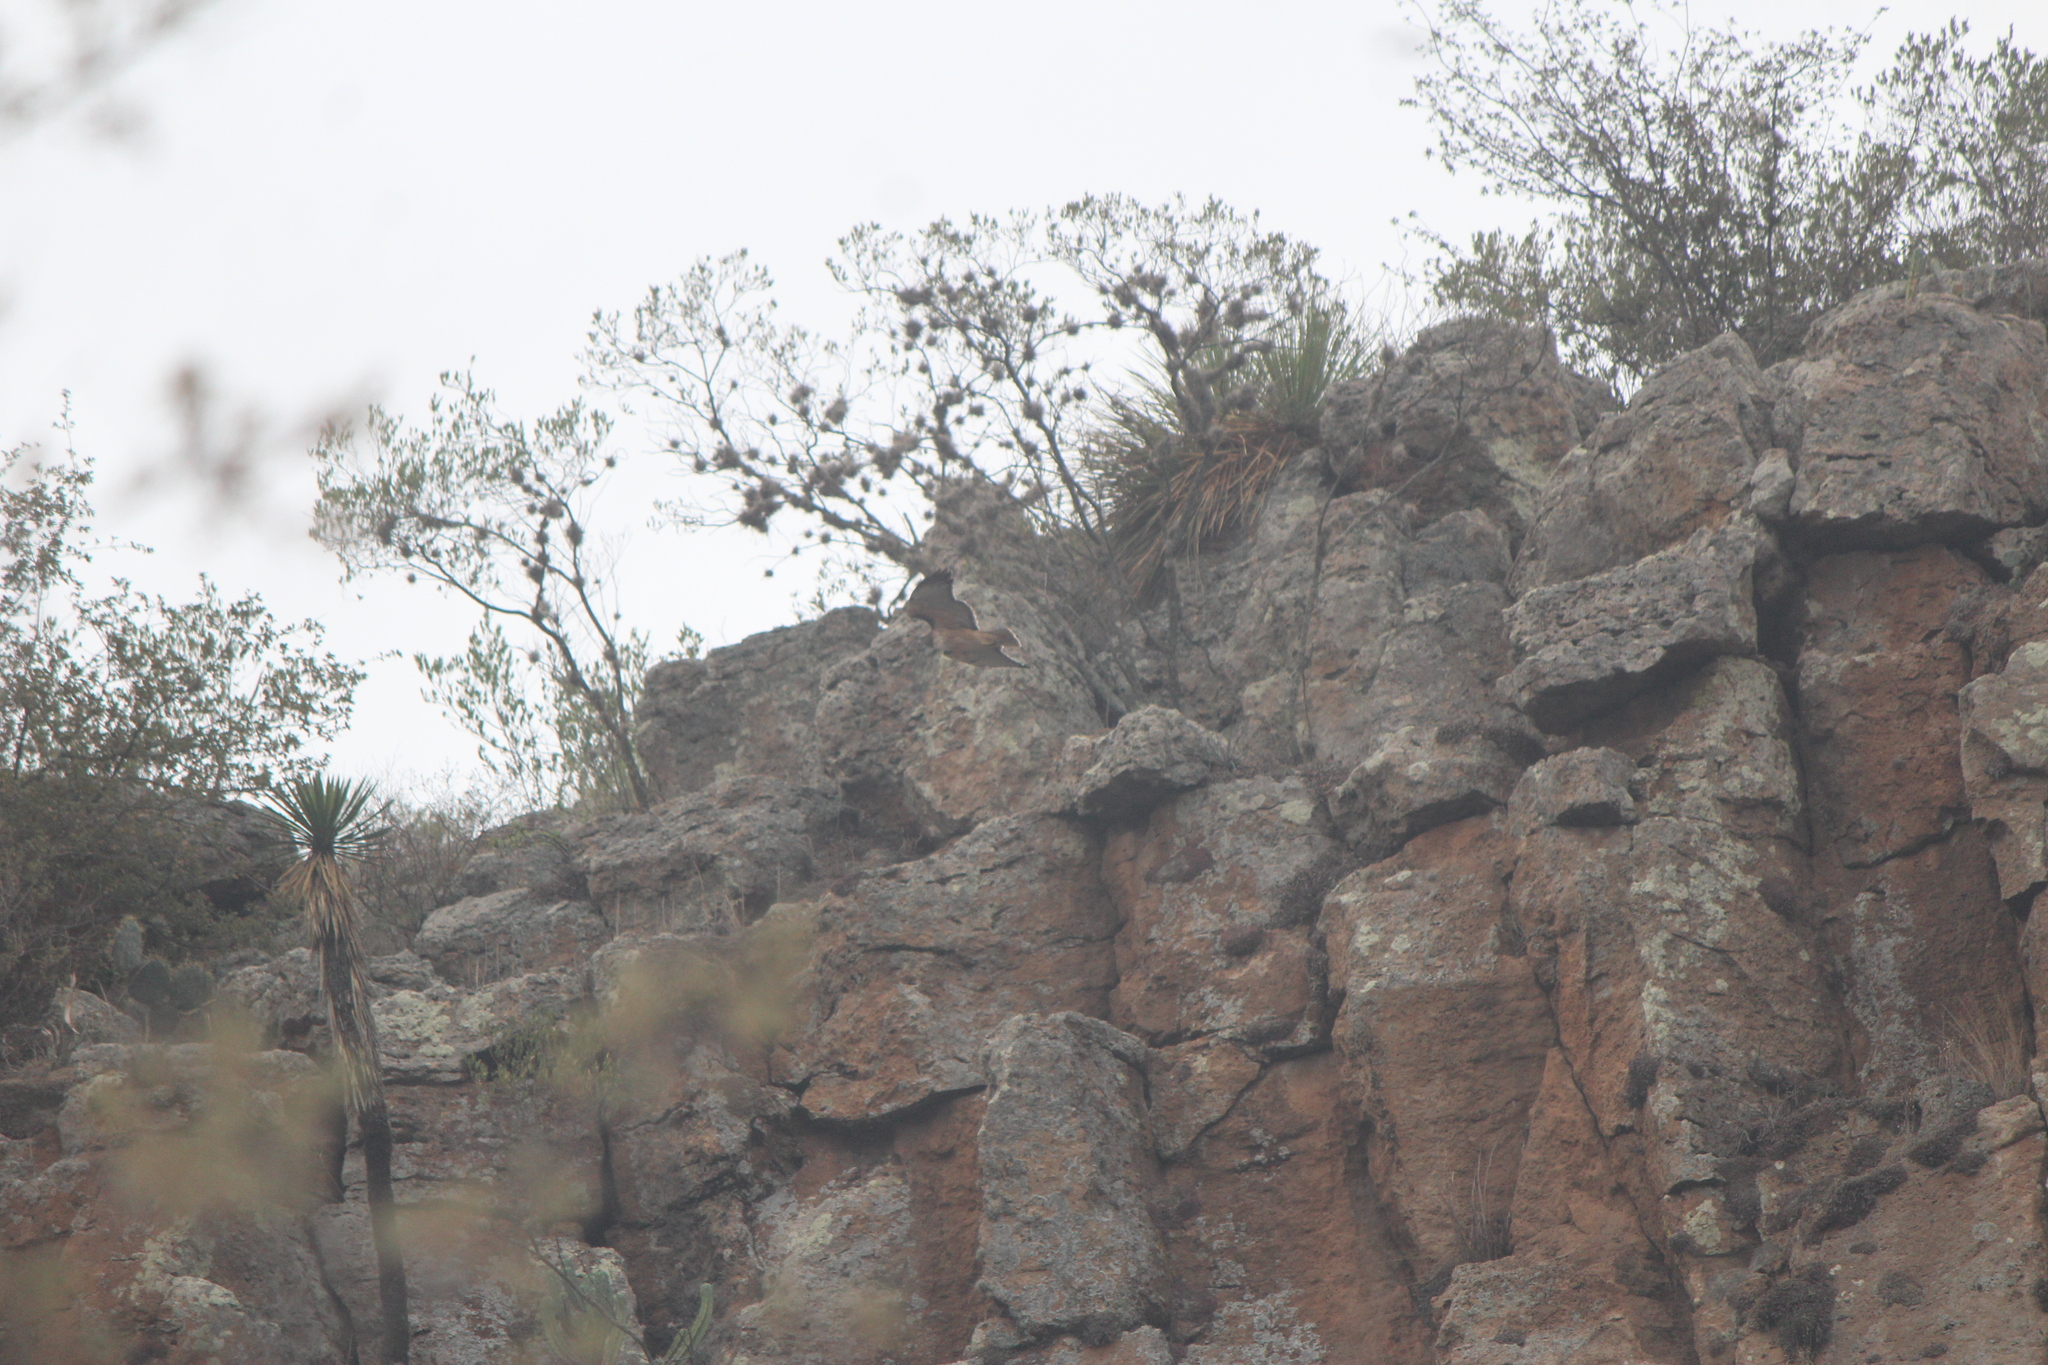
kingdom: Animalia
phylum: Chordata
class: Aves
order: Accipitriformes
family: Accipitridae
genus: Buteo
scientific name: Buteo jamaicensis
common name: Red-tailed hawk
